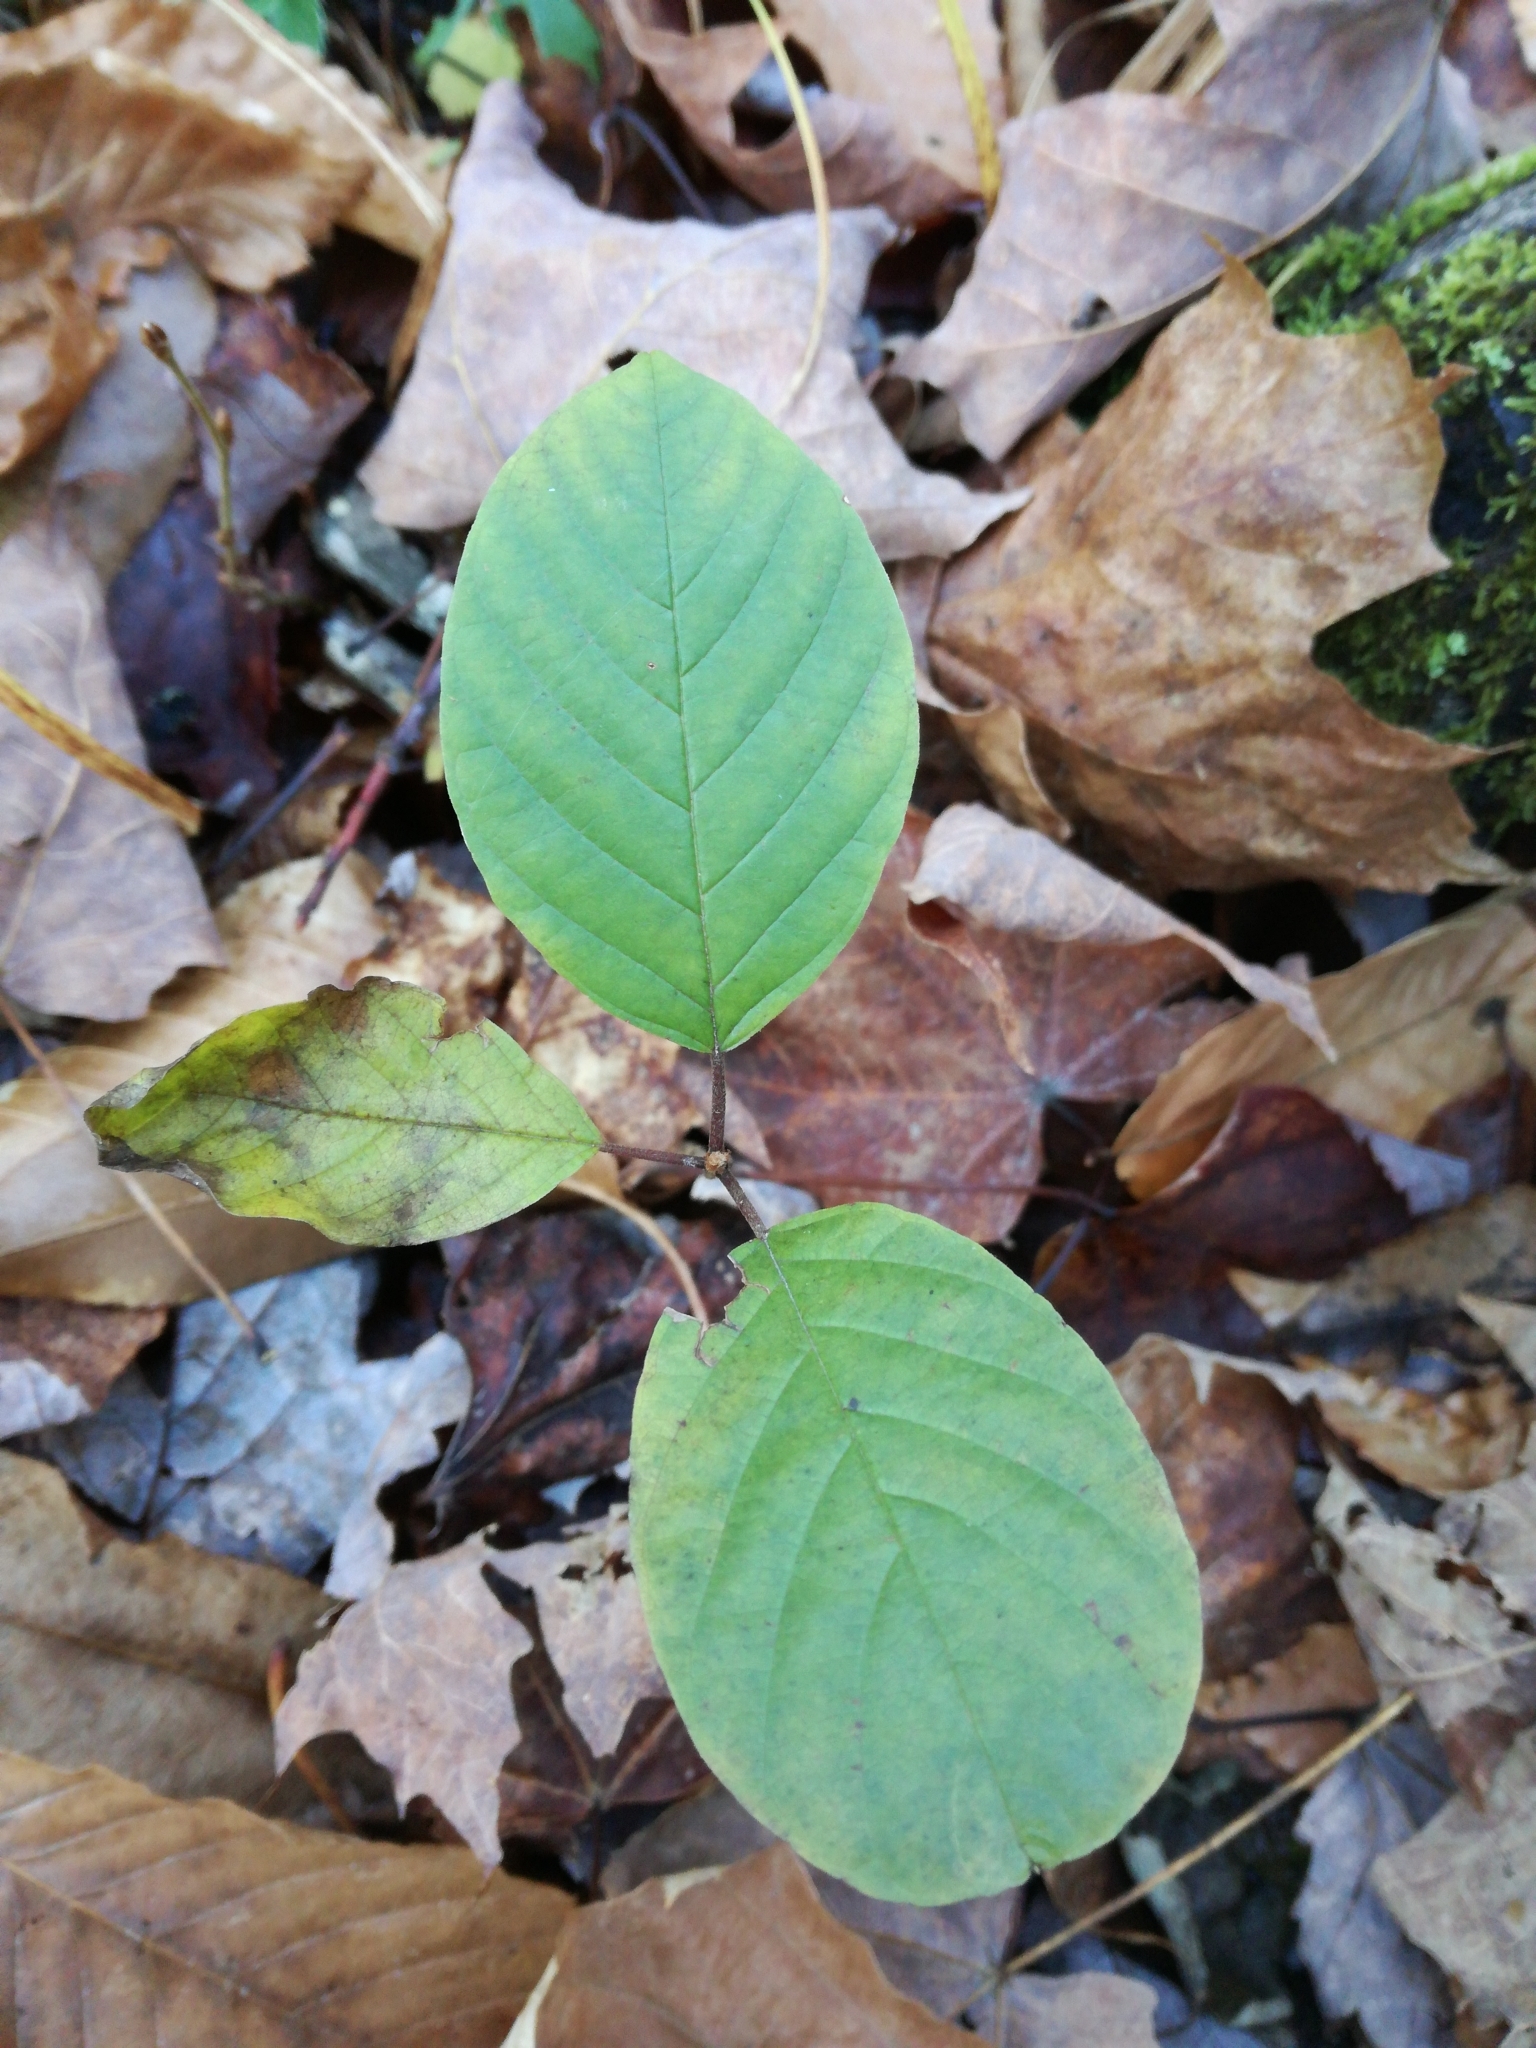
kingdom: Plantae
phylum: Tracheophyta
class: Magnoliopsida
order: Rosales
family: Rhamnaceae
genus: Frangula
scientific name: Frangula alnus
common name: Alder buckthorn
